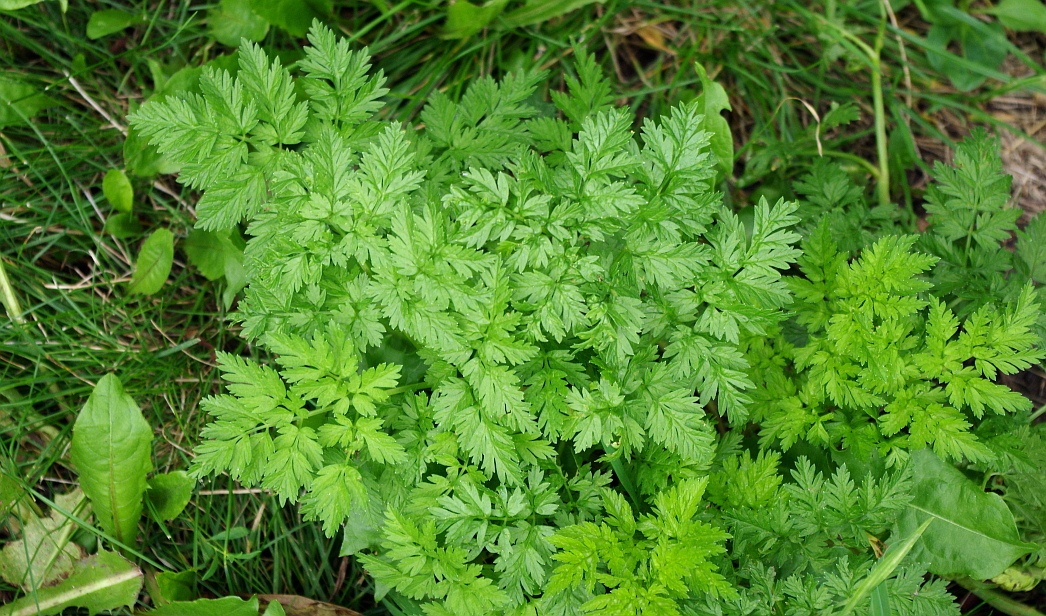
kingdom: Plantae
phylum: Tracheophyta
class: Magnoliopsida
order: Apiales
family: Apiaceae
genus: Anthriscus
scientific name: Anthriscus sylvestris
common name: Cow parsley
